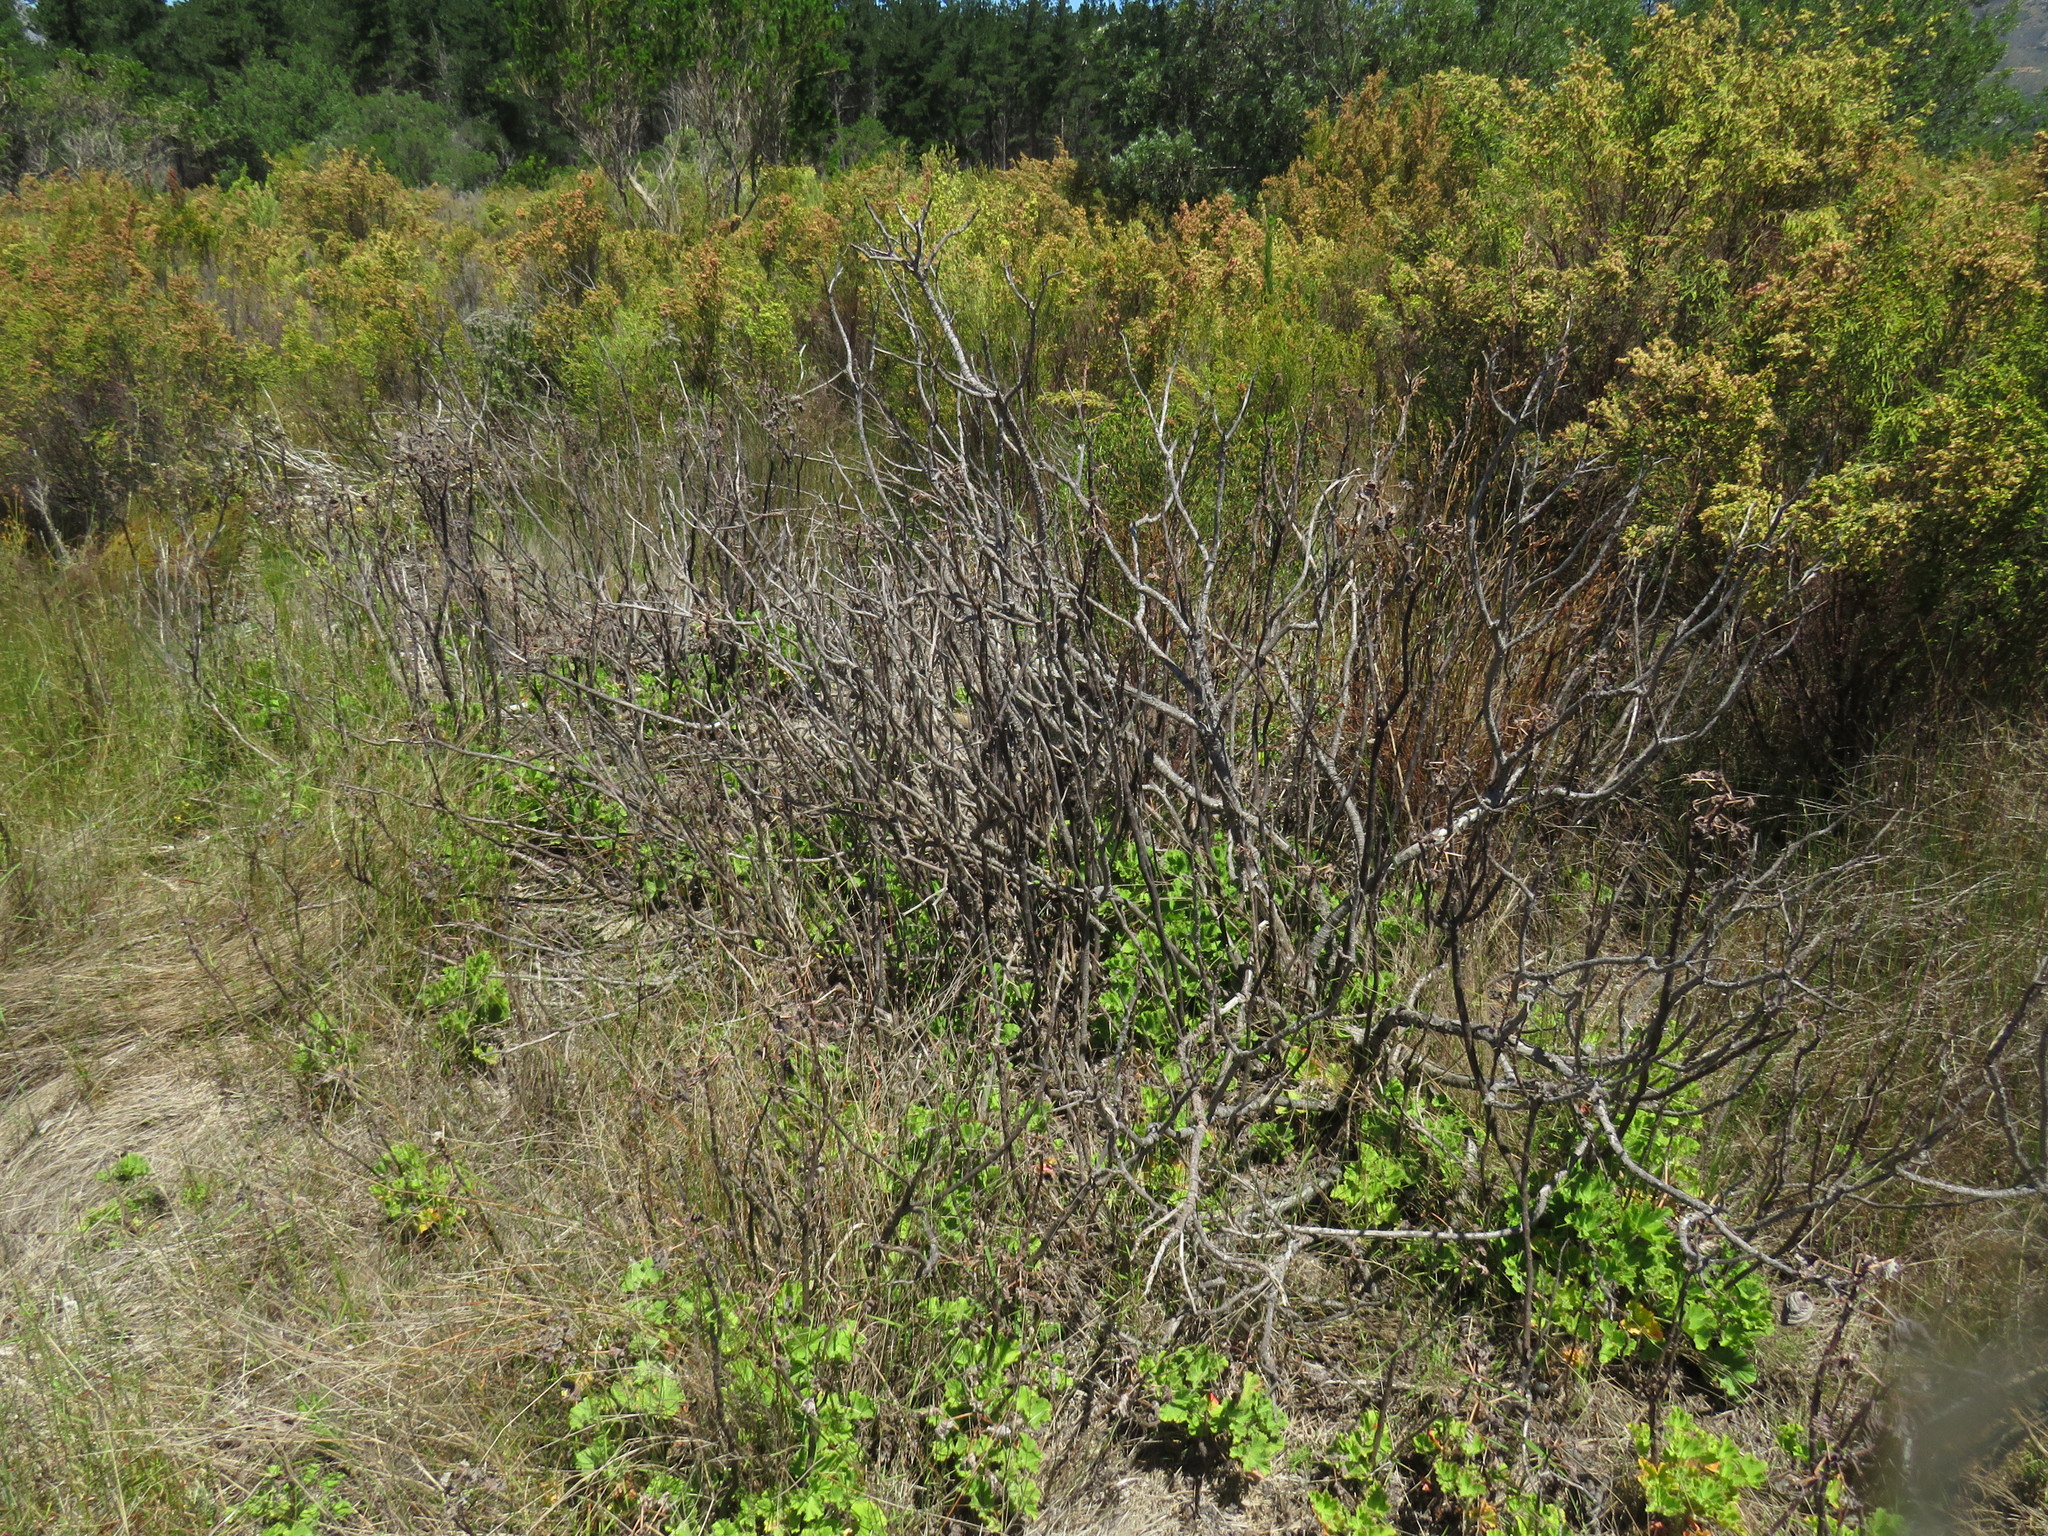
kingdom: Plantae
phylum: Tracheophyta
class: Magnoliopsida
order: Geraniales
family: Geraniaceae
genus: Pelargonium
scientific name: Pelargonium cucullatum
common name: Tree pelargonium
